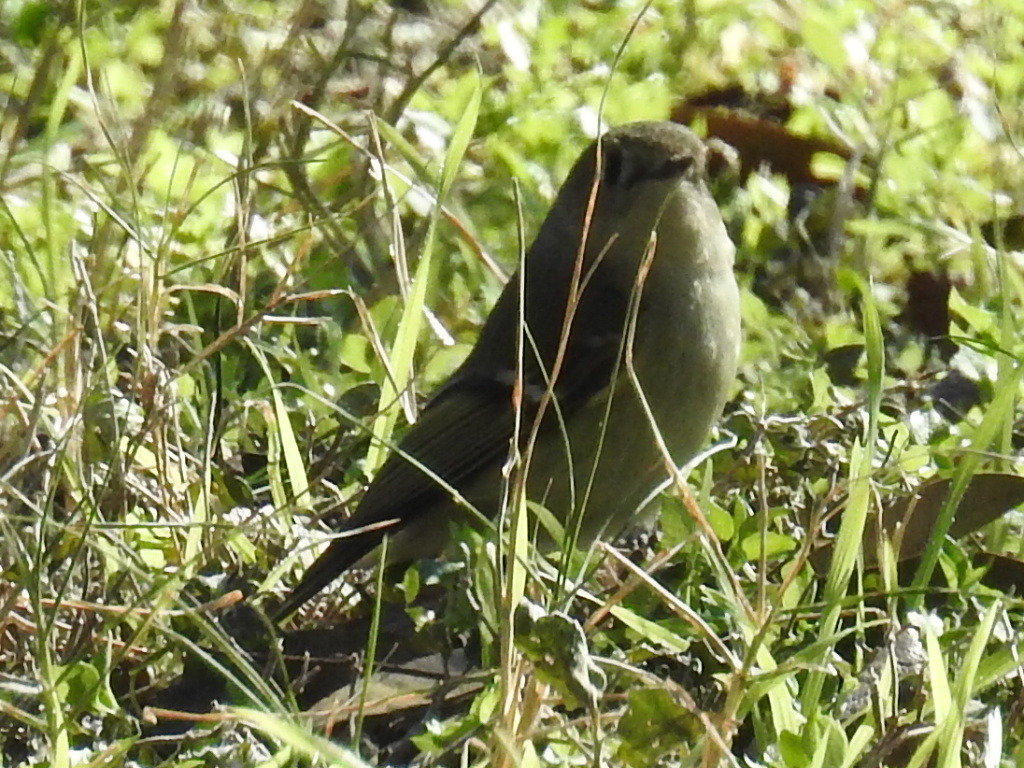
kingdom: Animalia
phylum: Chordata
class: Aves
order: Passeriformes
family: Regulidae
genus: Regulus
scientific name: Regulus calendula
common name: Ruby-crowned kinglet
